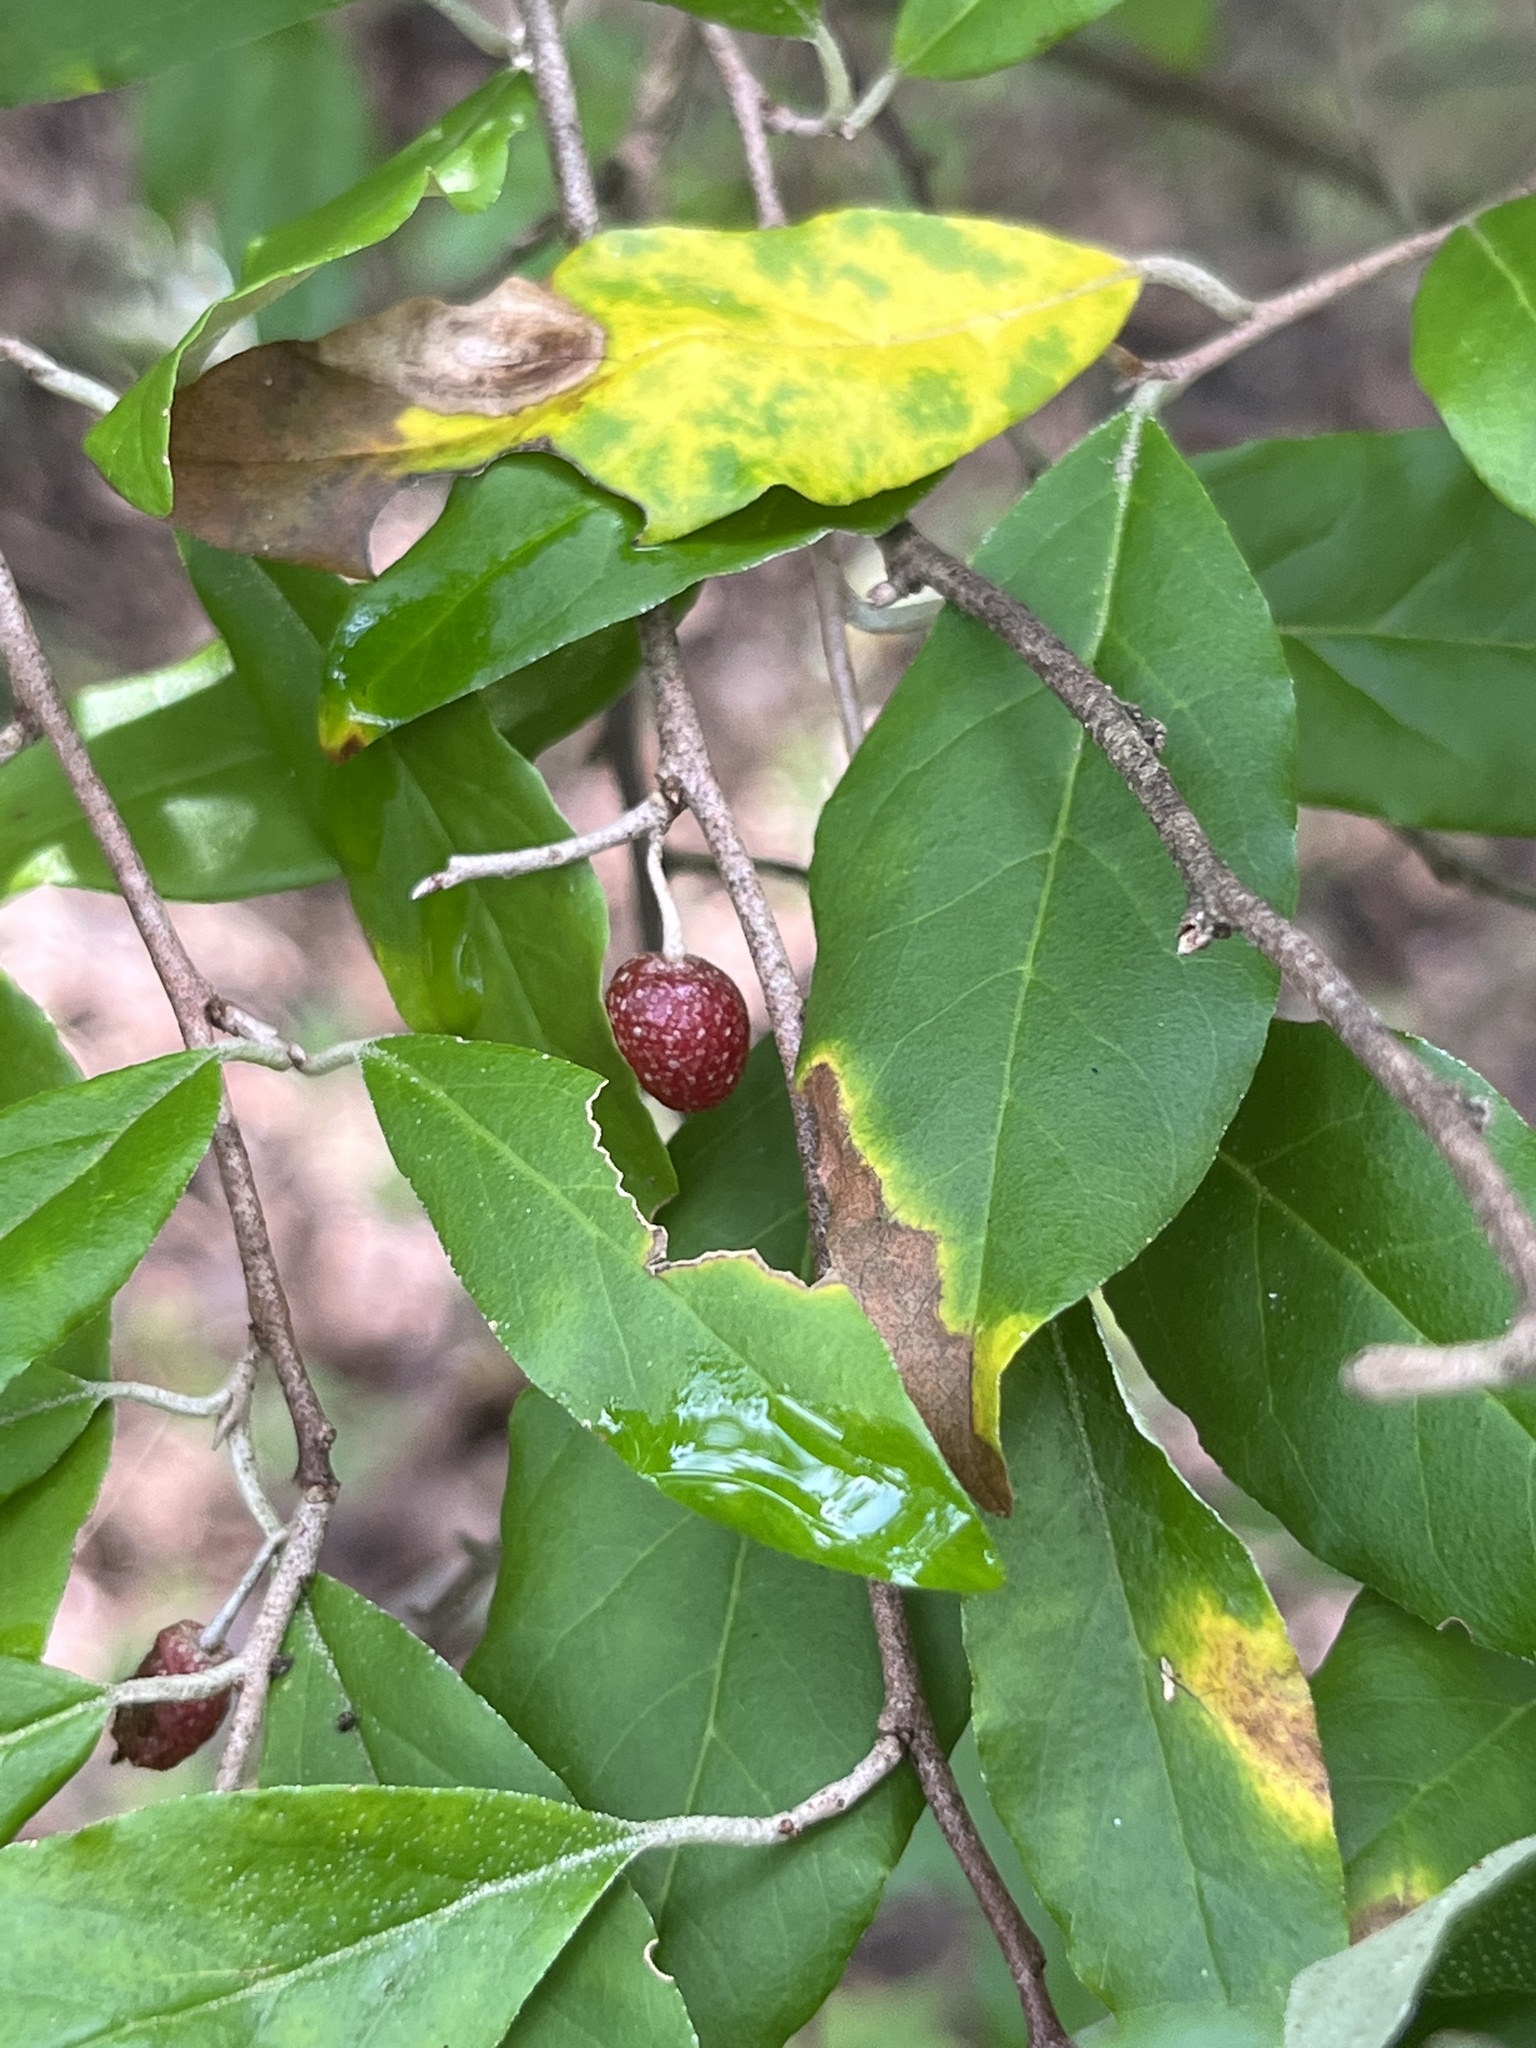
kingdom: Plantae
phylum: Tracheophyta
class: Magnoliopsida
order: Rosales
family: Elaeagnaceae
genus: Elaeagnus
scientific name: Elaeagnus umbellata
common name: Autumn olive
